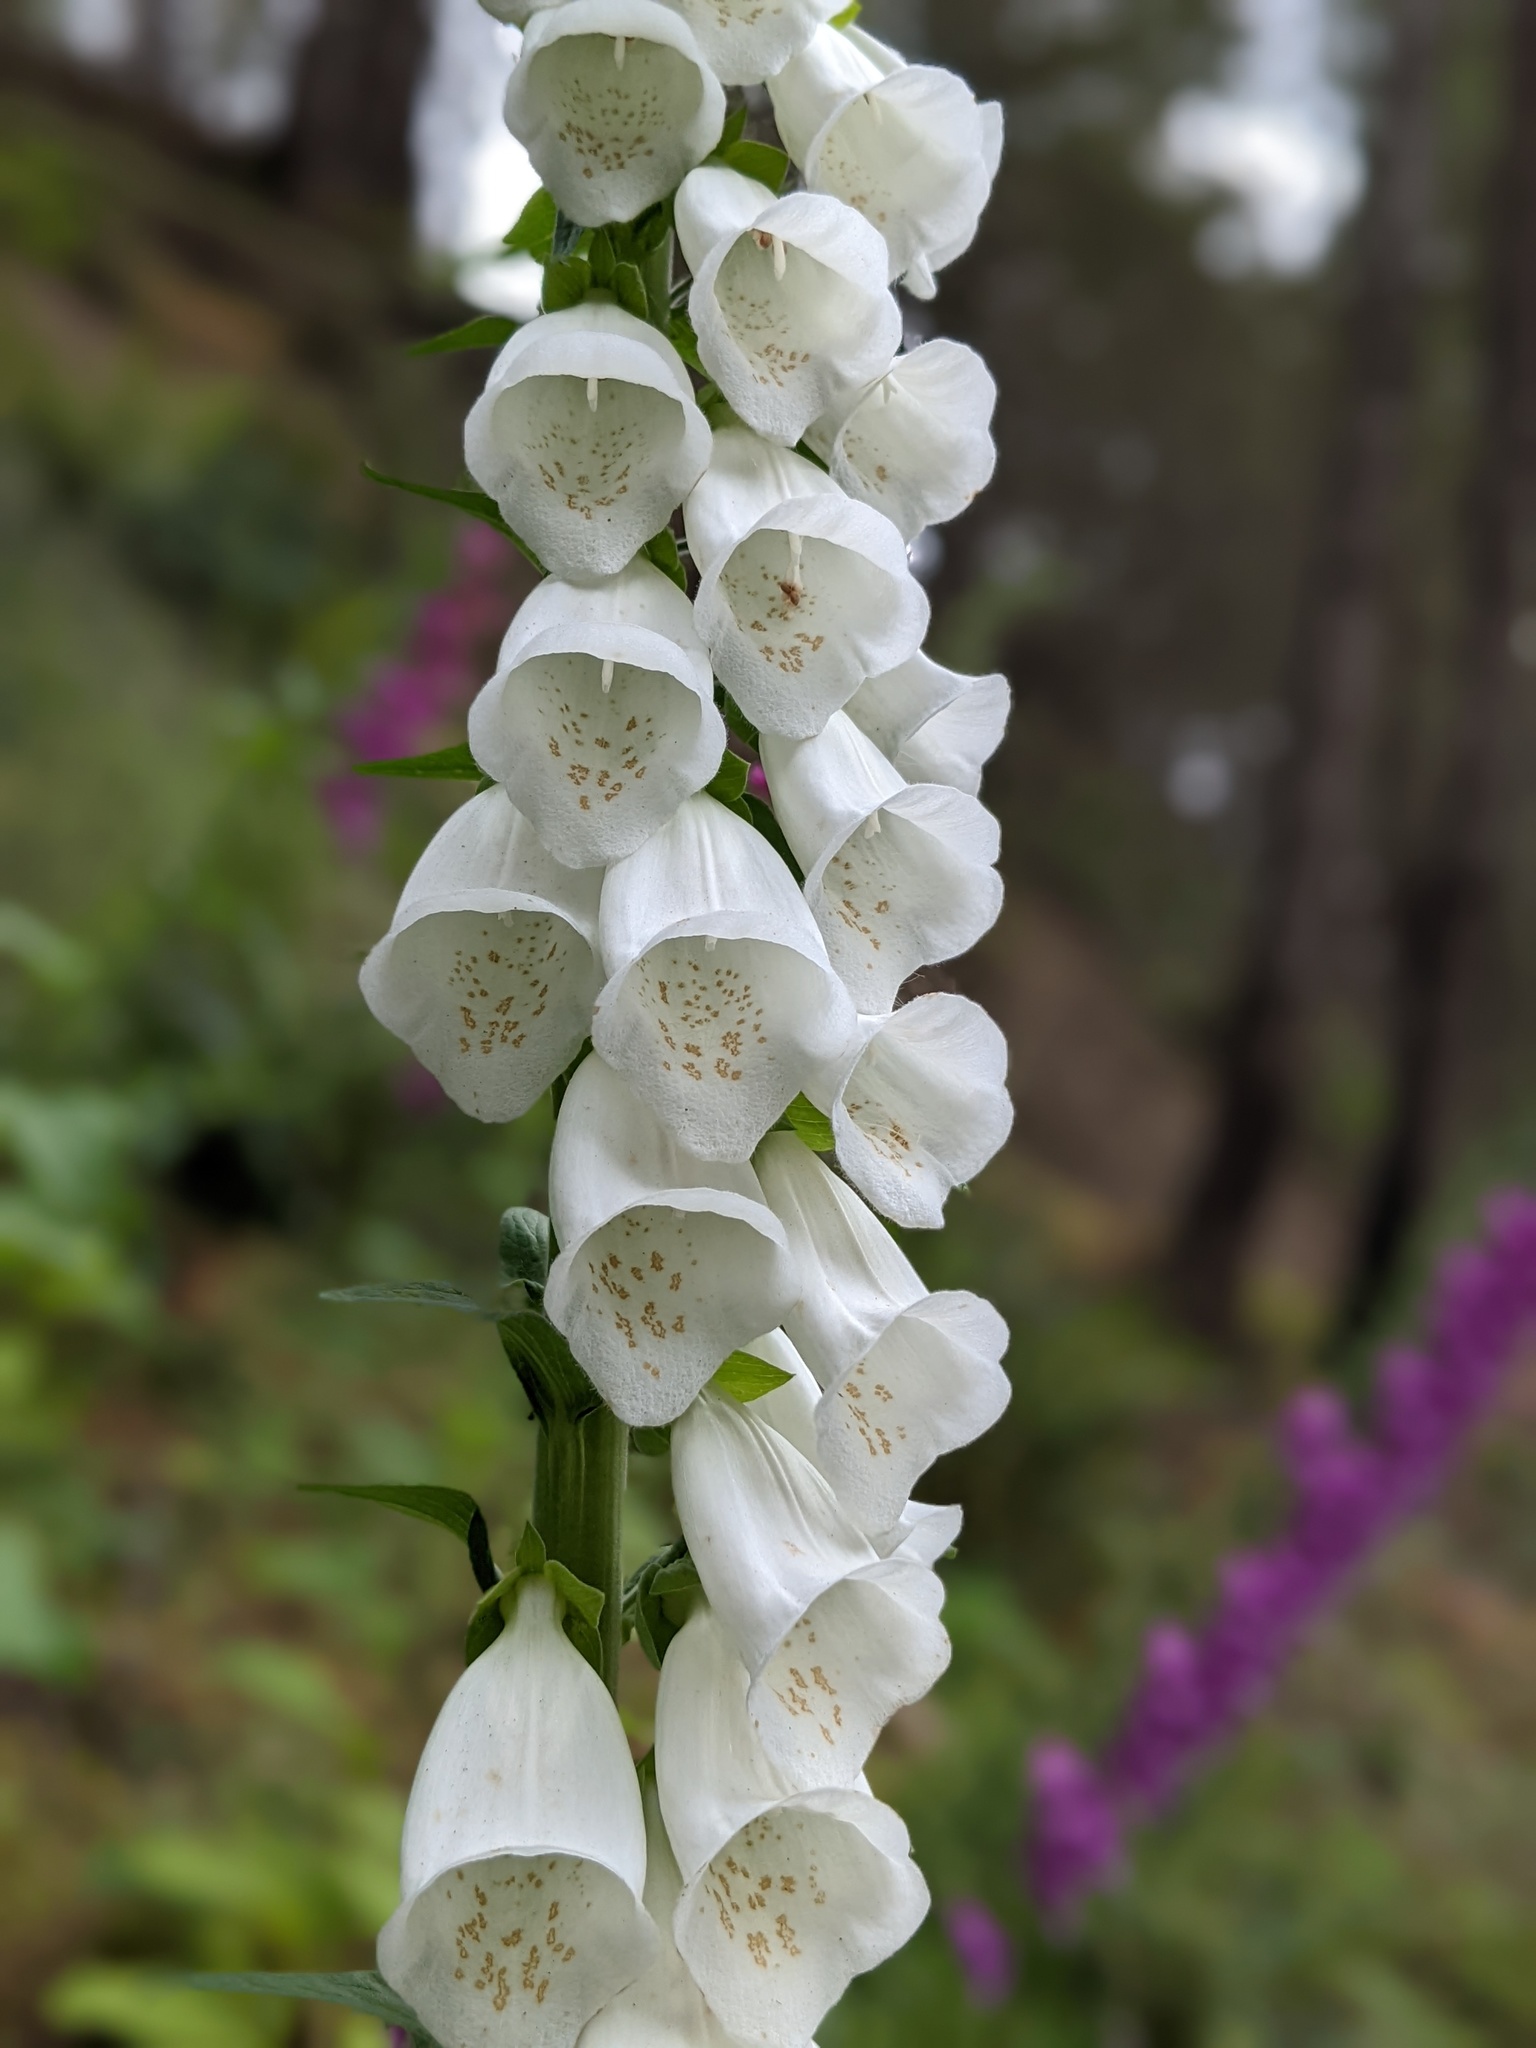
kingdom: Plantae
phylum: Tracheophyta
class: Magnoliopsida
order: Lamiales
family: Plantaginaceae
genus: Digitalis
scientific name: Digitalis purpurea
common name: Foxglove
